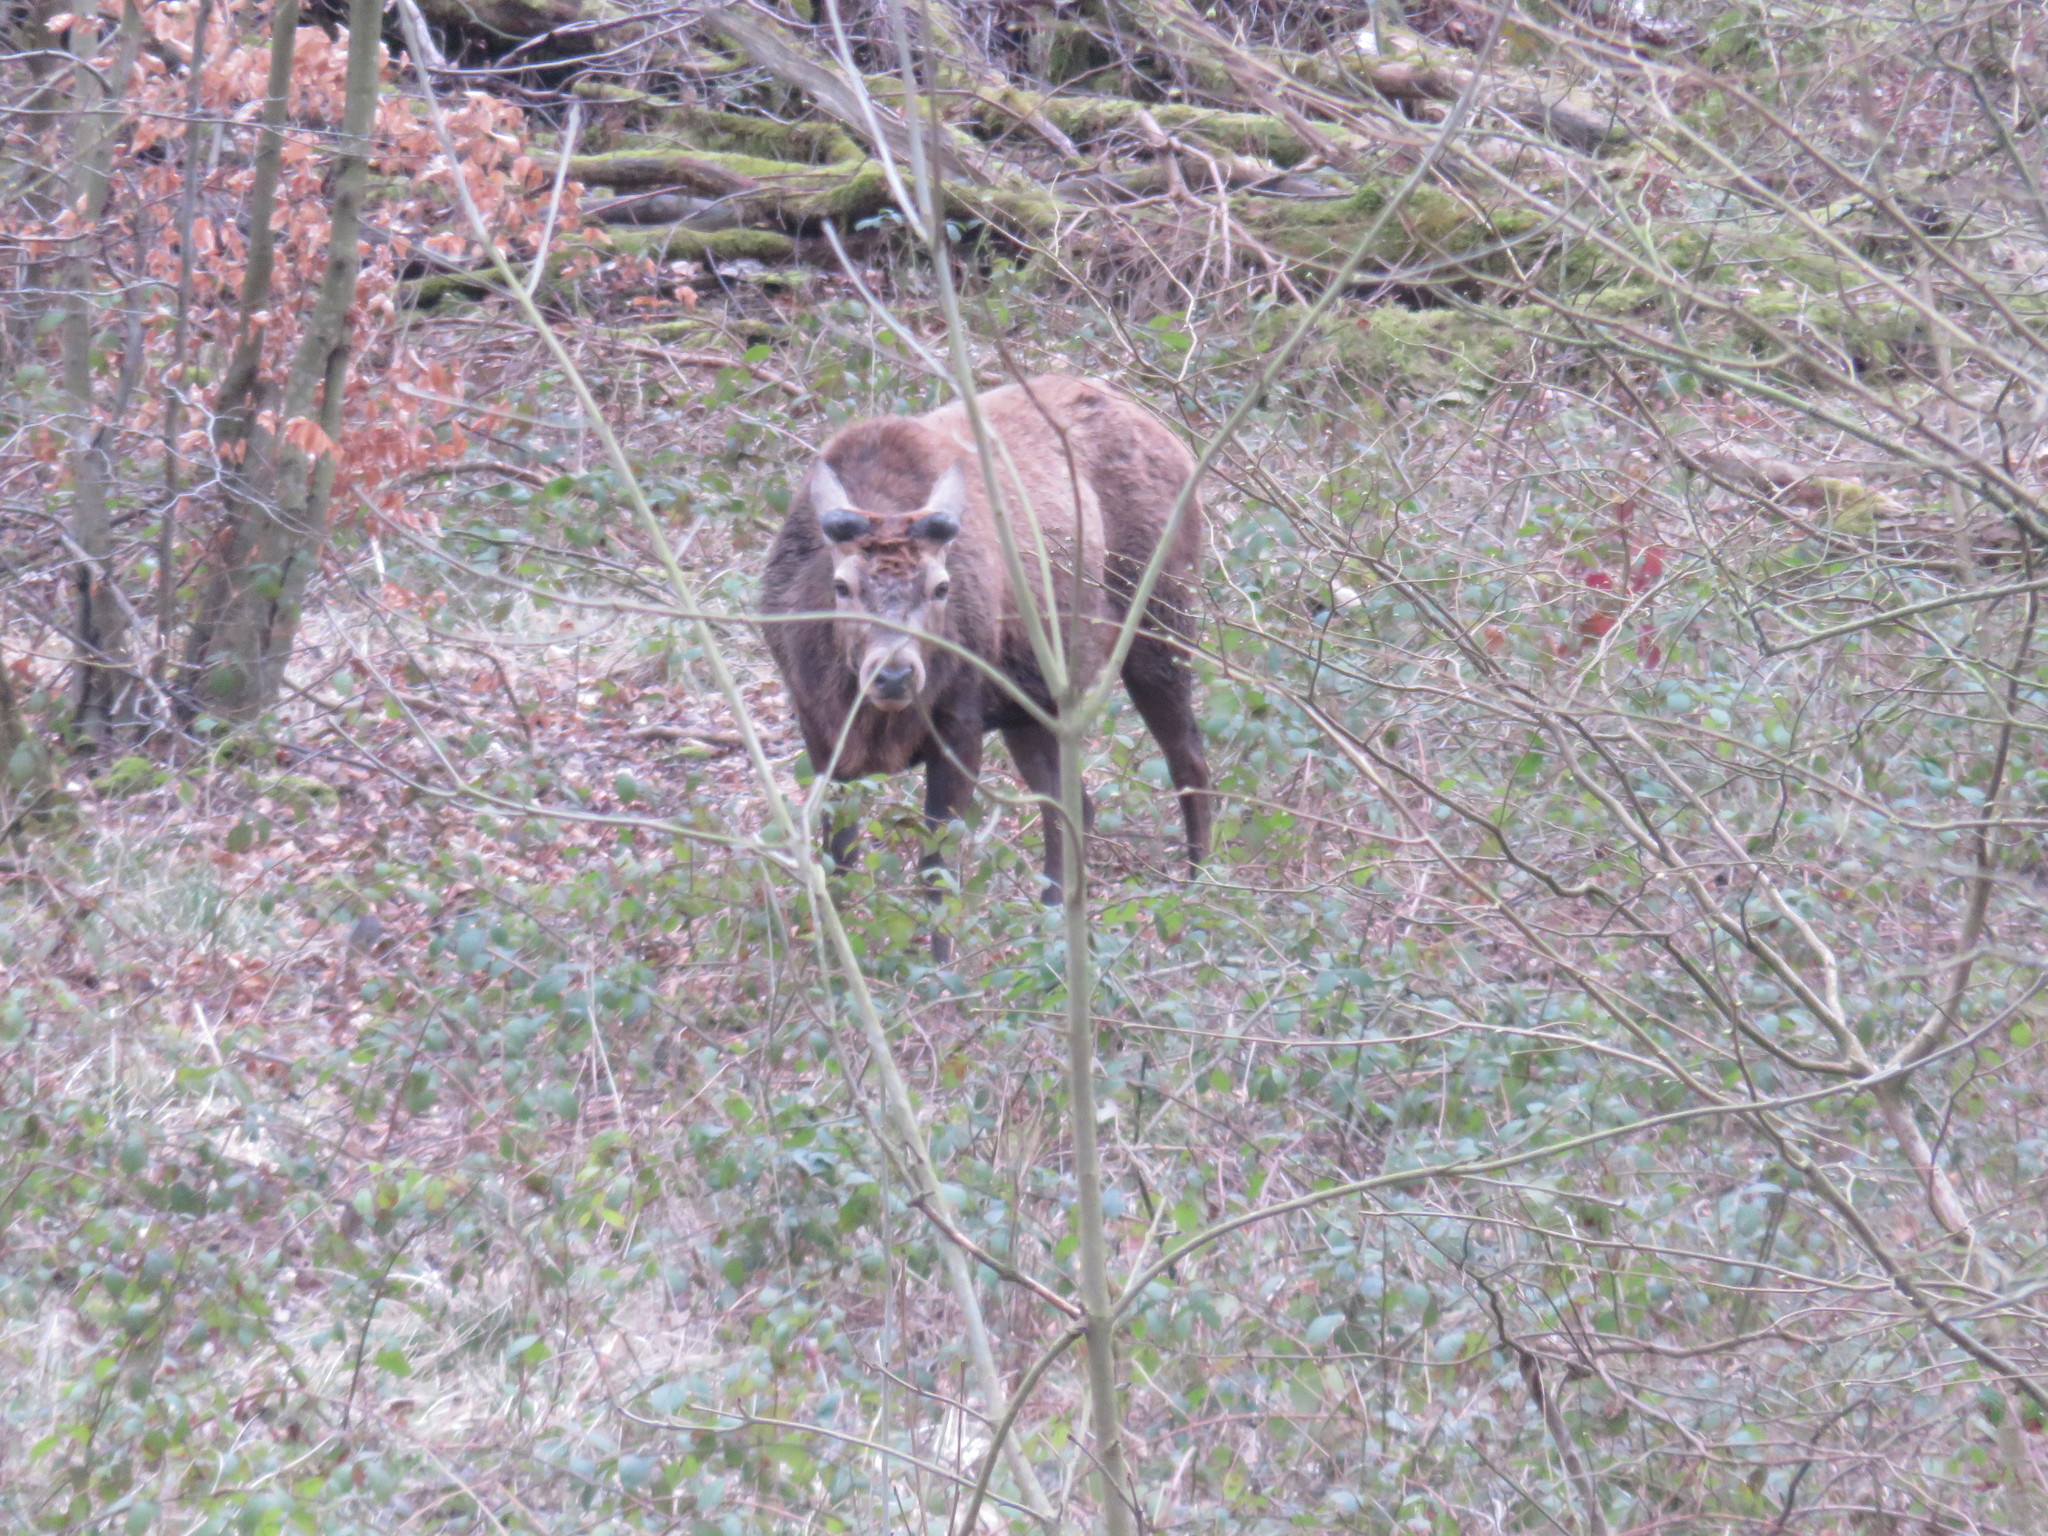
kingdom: Animalia
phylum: Chordata
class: Mammalia
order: Artiodactyla
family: Cervidae
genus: Cervus
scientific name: Cervus elaphus
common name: Red deer
